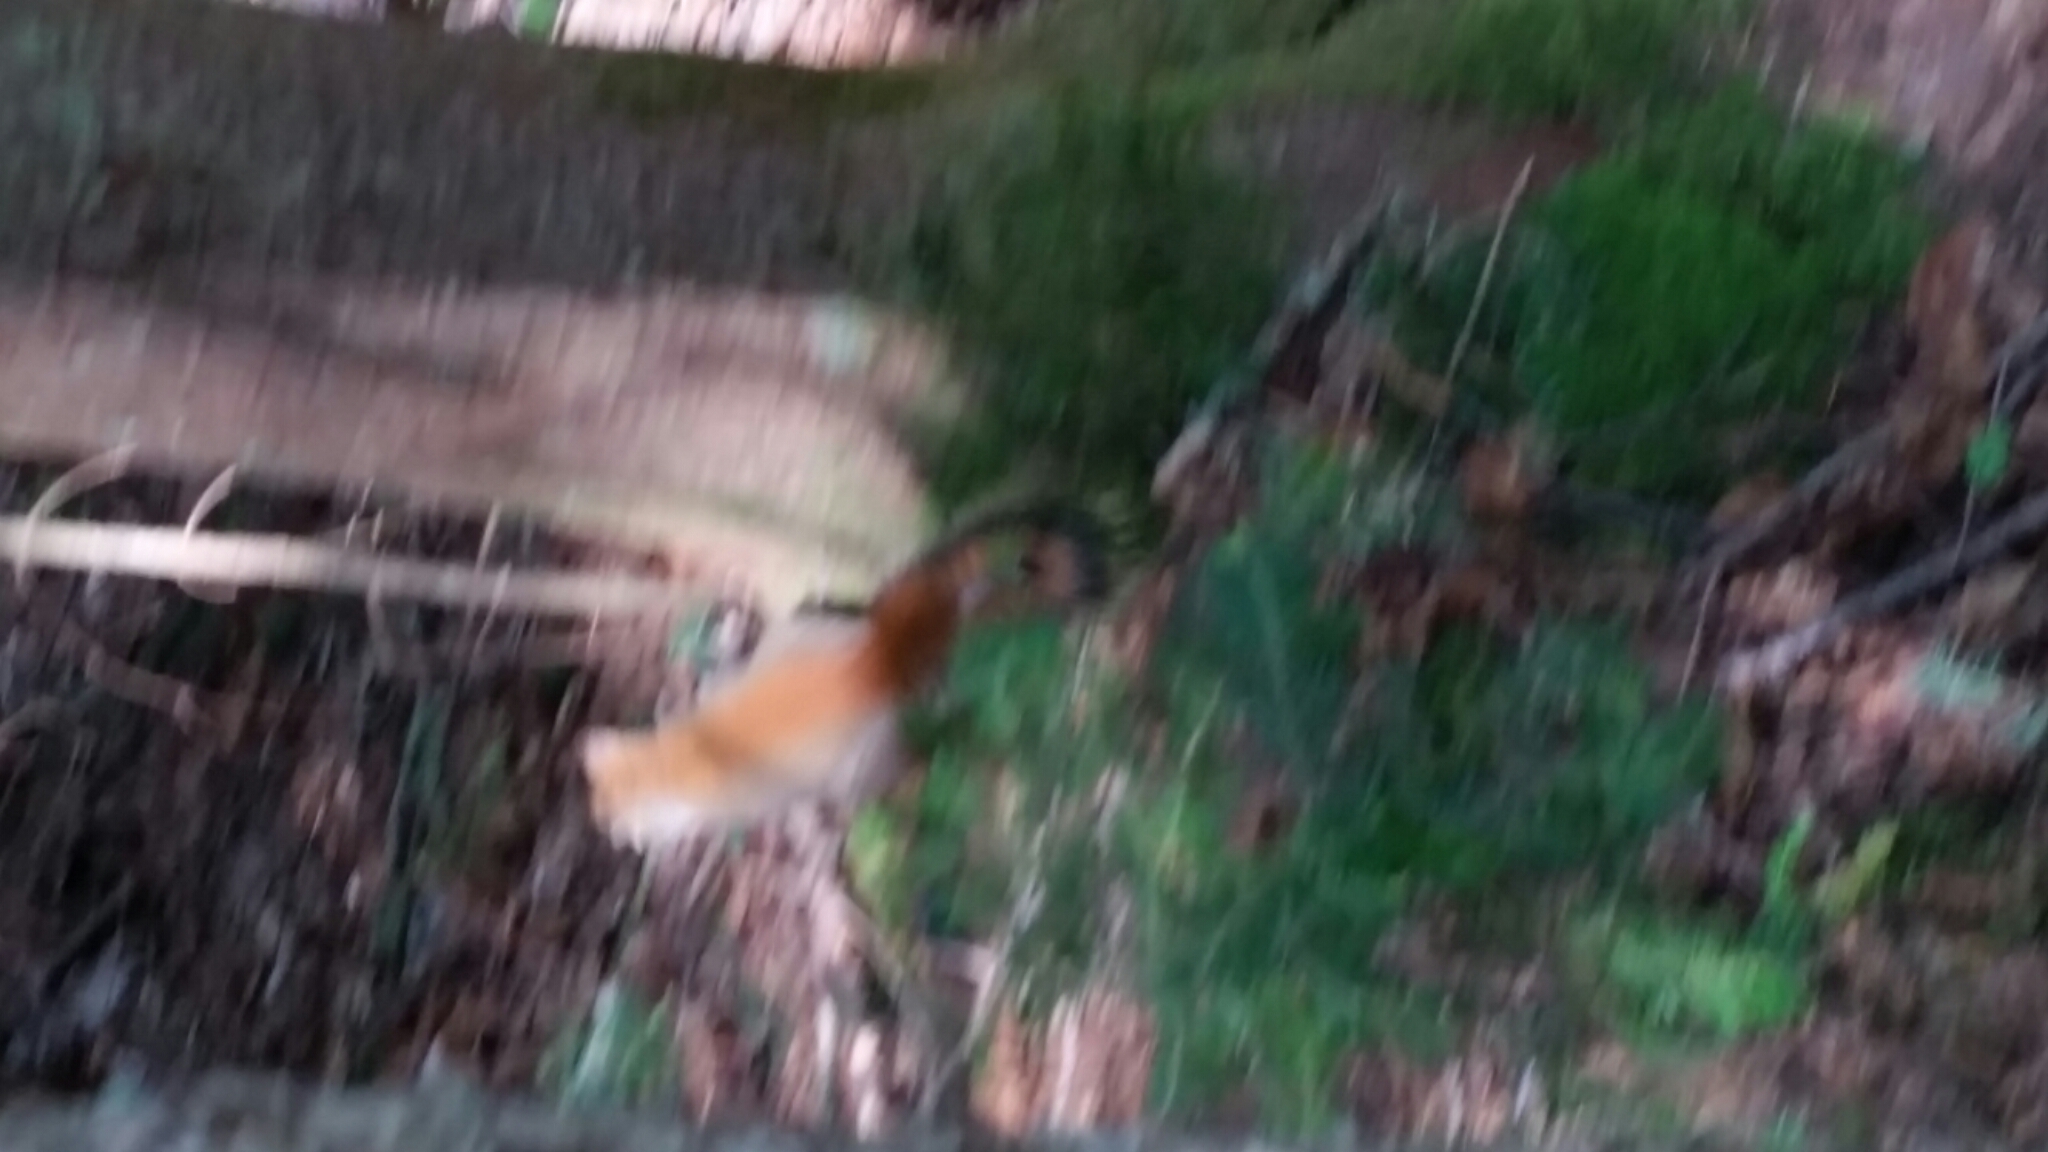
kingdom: Animalia
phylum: Chordata
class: Mammalia
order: Rodentia
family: Sciuridae
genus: Tamiasciurus
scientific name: Tamiasciurus hudsonicus
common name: Red squirrel
